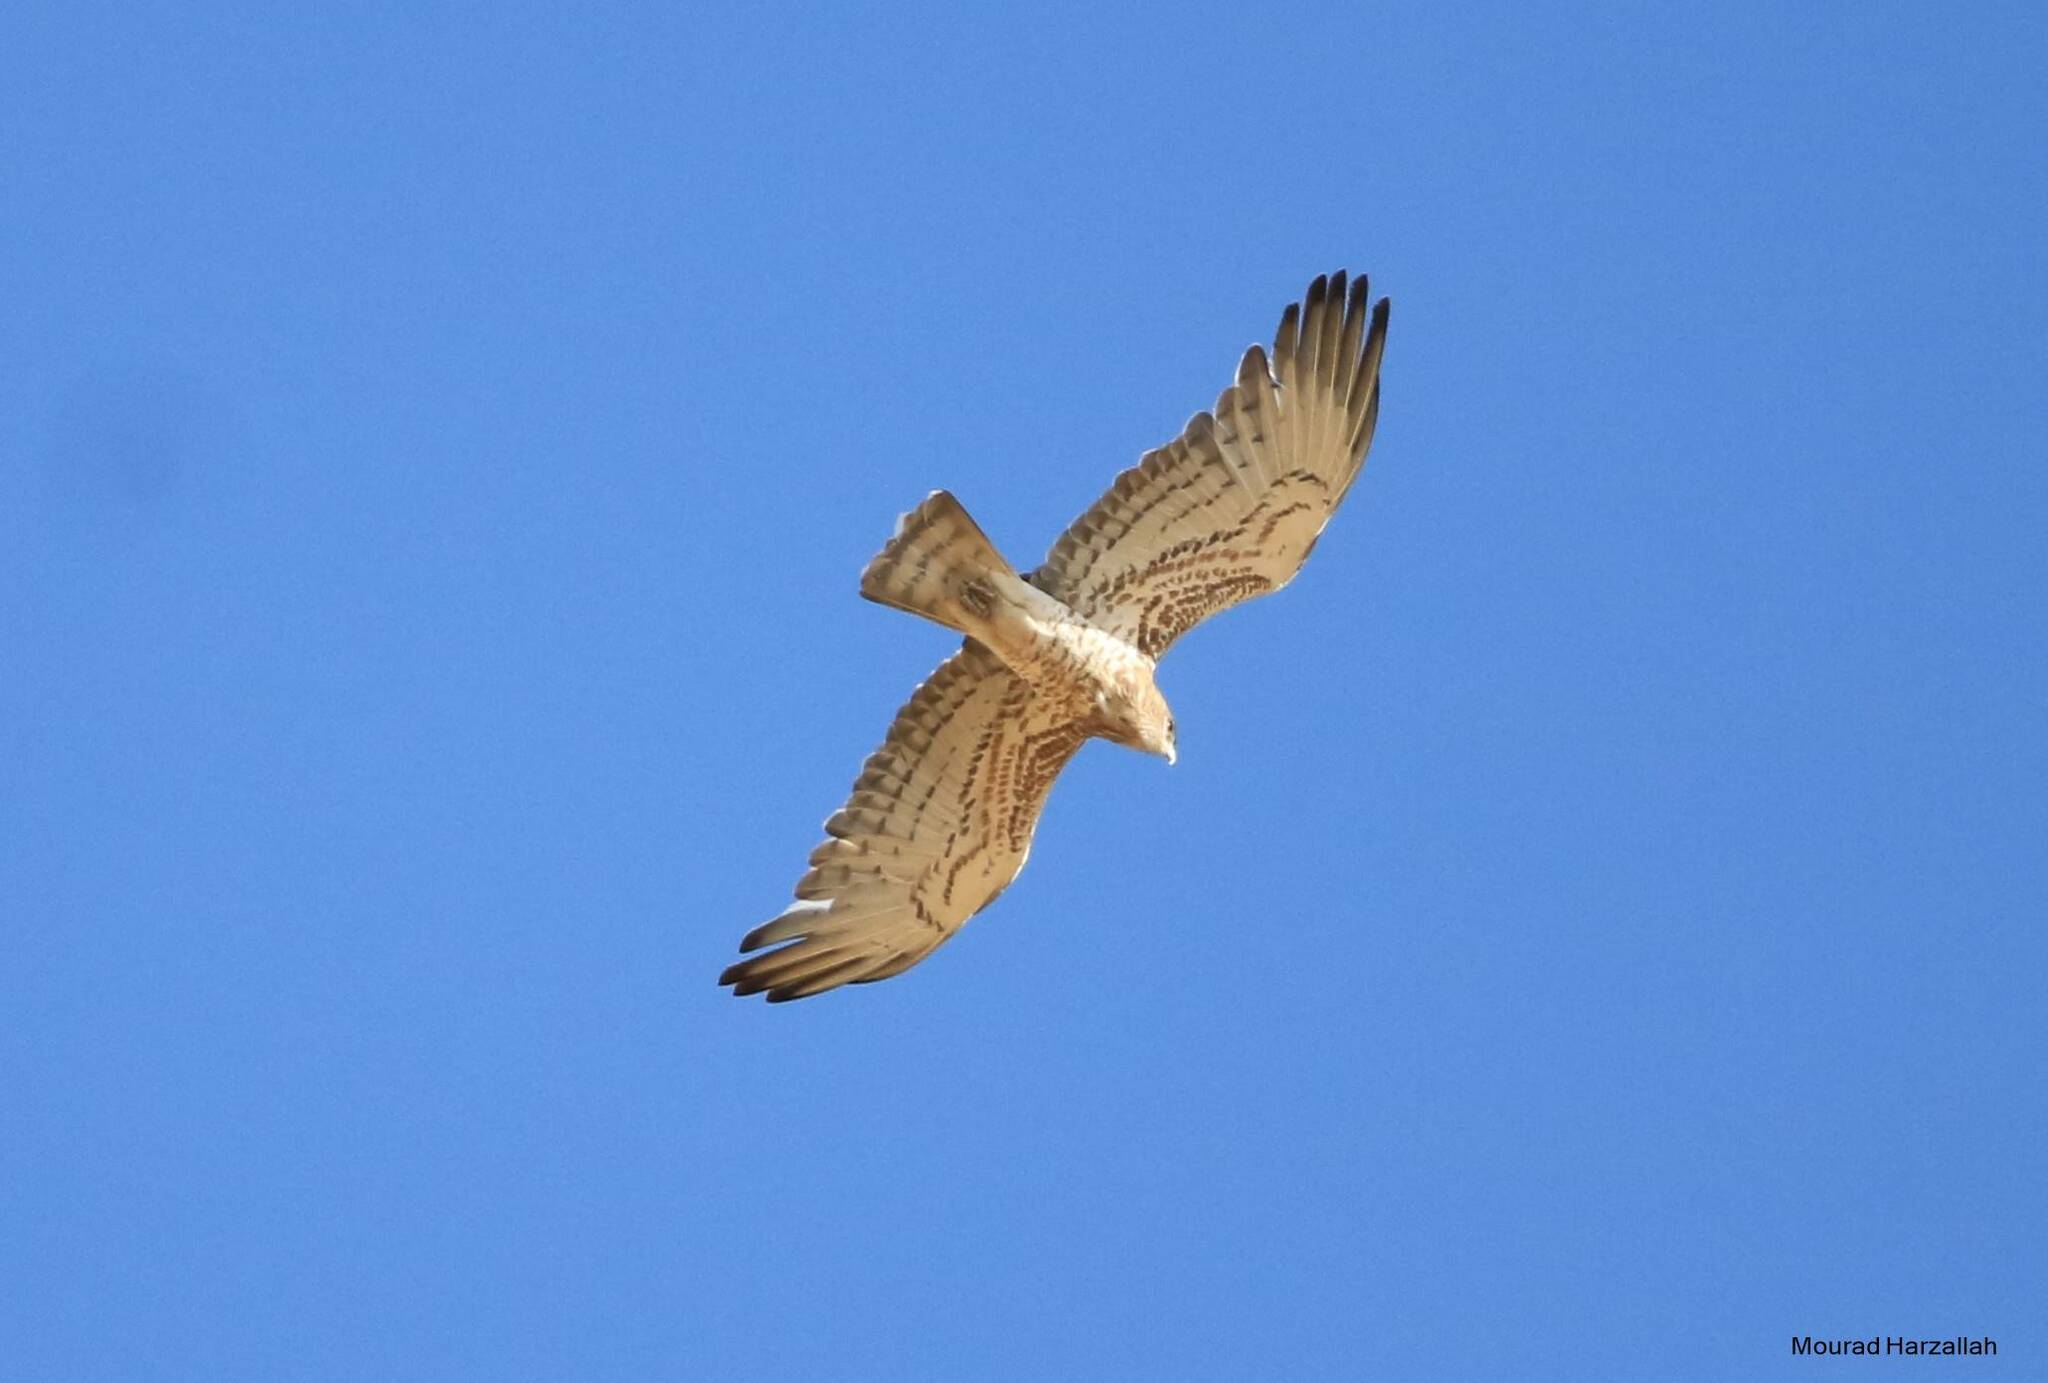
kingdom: Animalia
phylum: Chordata
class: Aves
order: Accipitriformes
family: Accipitridae
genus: Circaetus
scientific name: Circaetus gallicus
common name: Short-toed snake eagle
